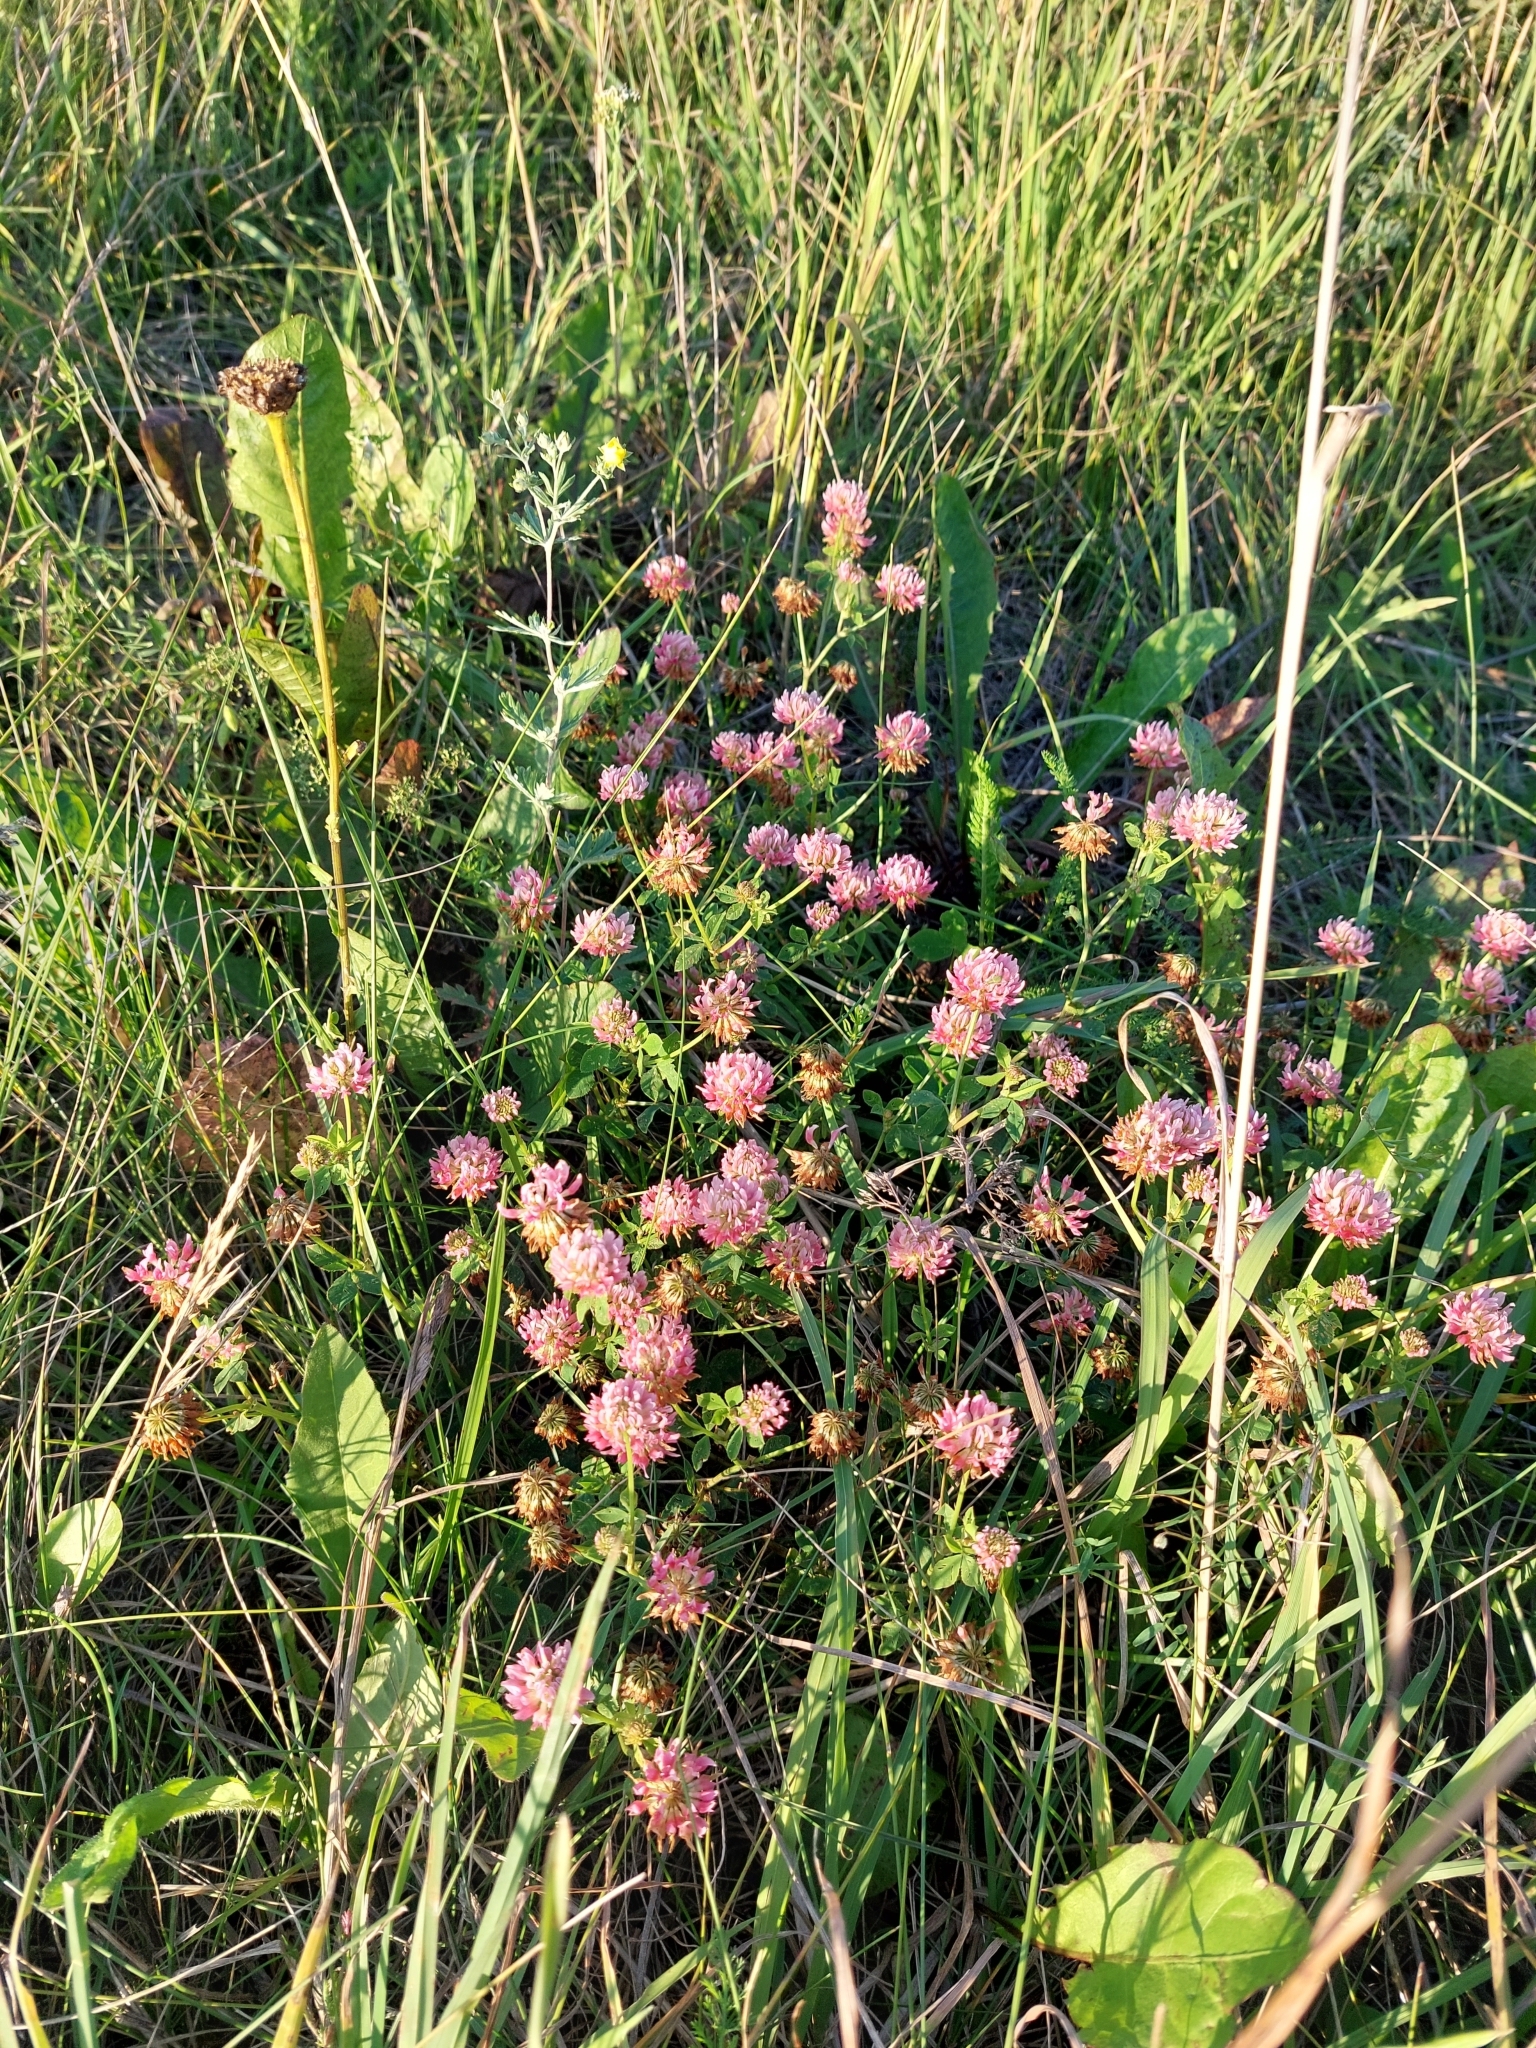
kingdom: Plantae
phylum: Tracheophyta
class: Magnoliopsida
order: Fabales
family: Fabaceae
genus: Trifolium
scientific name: Trifolium hybridum
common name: Alsike clover
